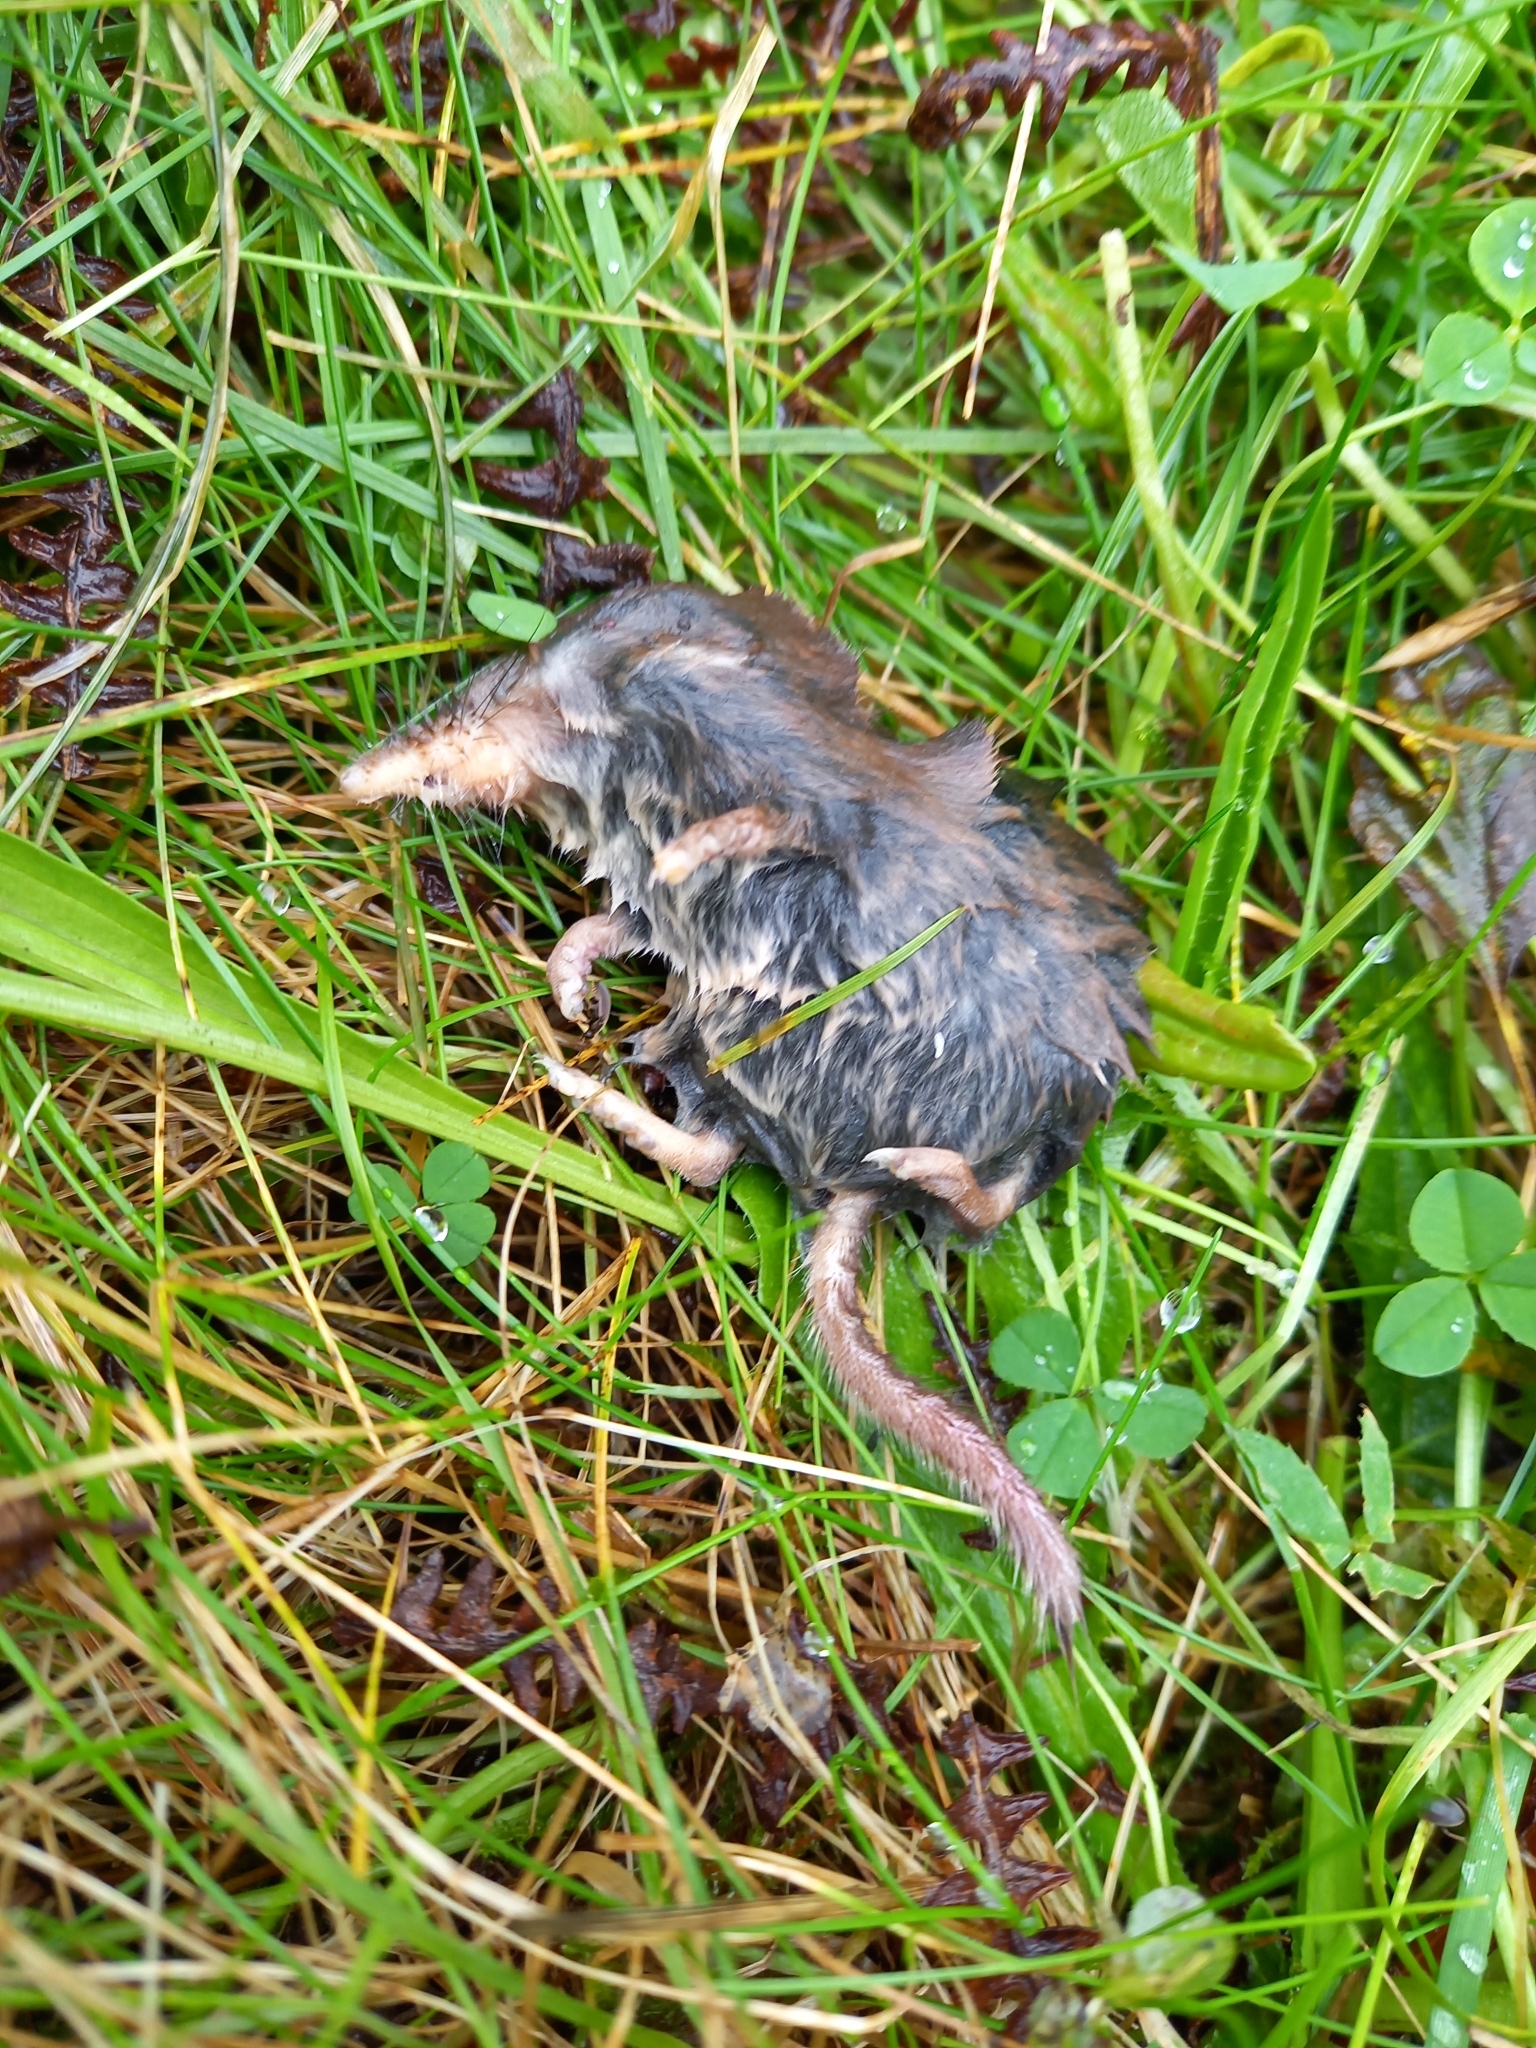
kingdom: Animalia
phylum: Chordata
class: Mammalia
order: Soricomorpha
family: Soricidae
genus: Sorex
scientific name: Sorex araneus
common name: Common shrew
